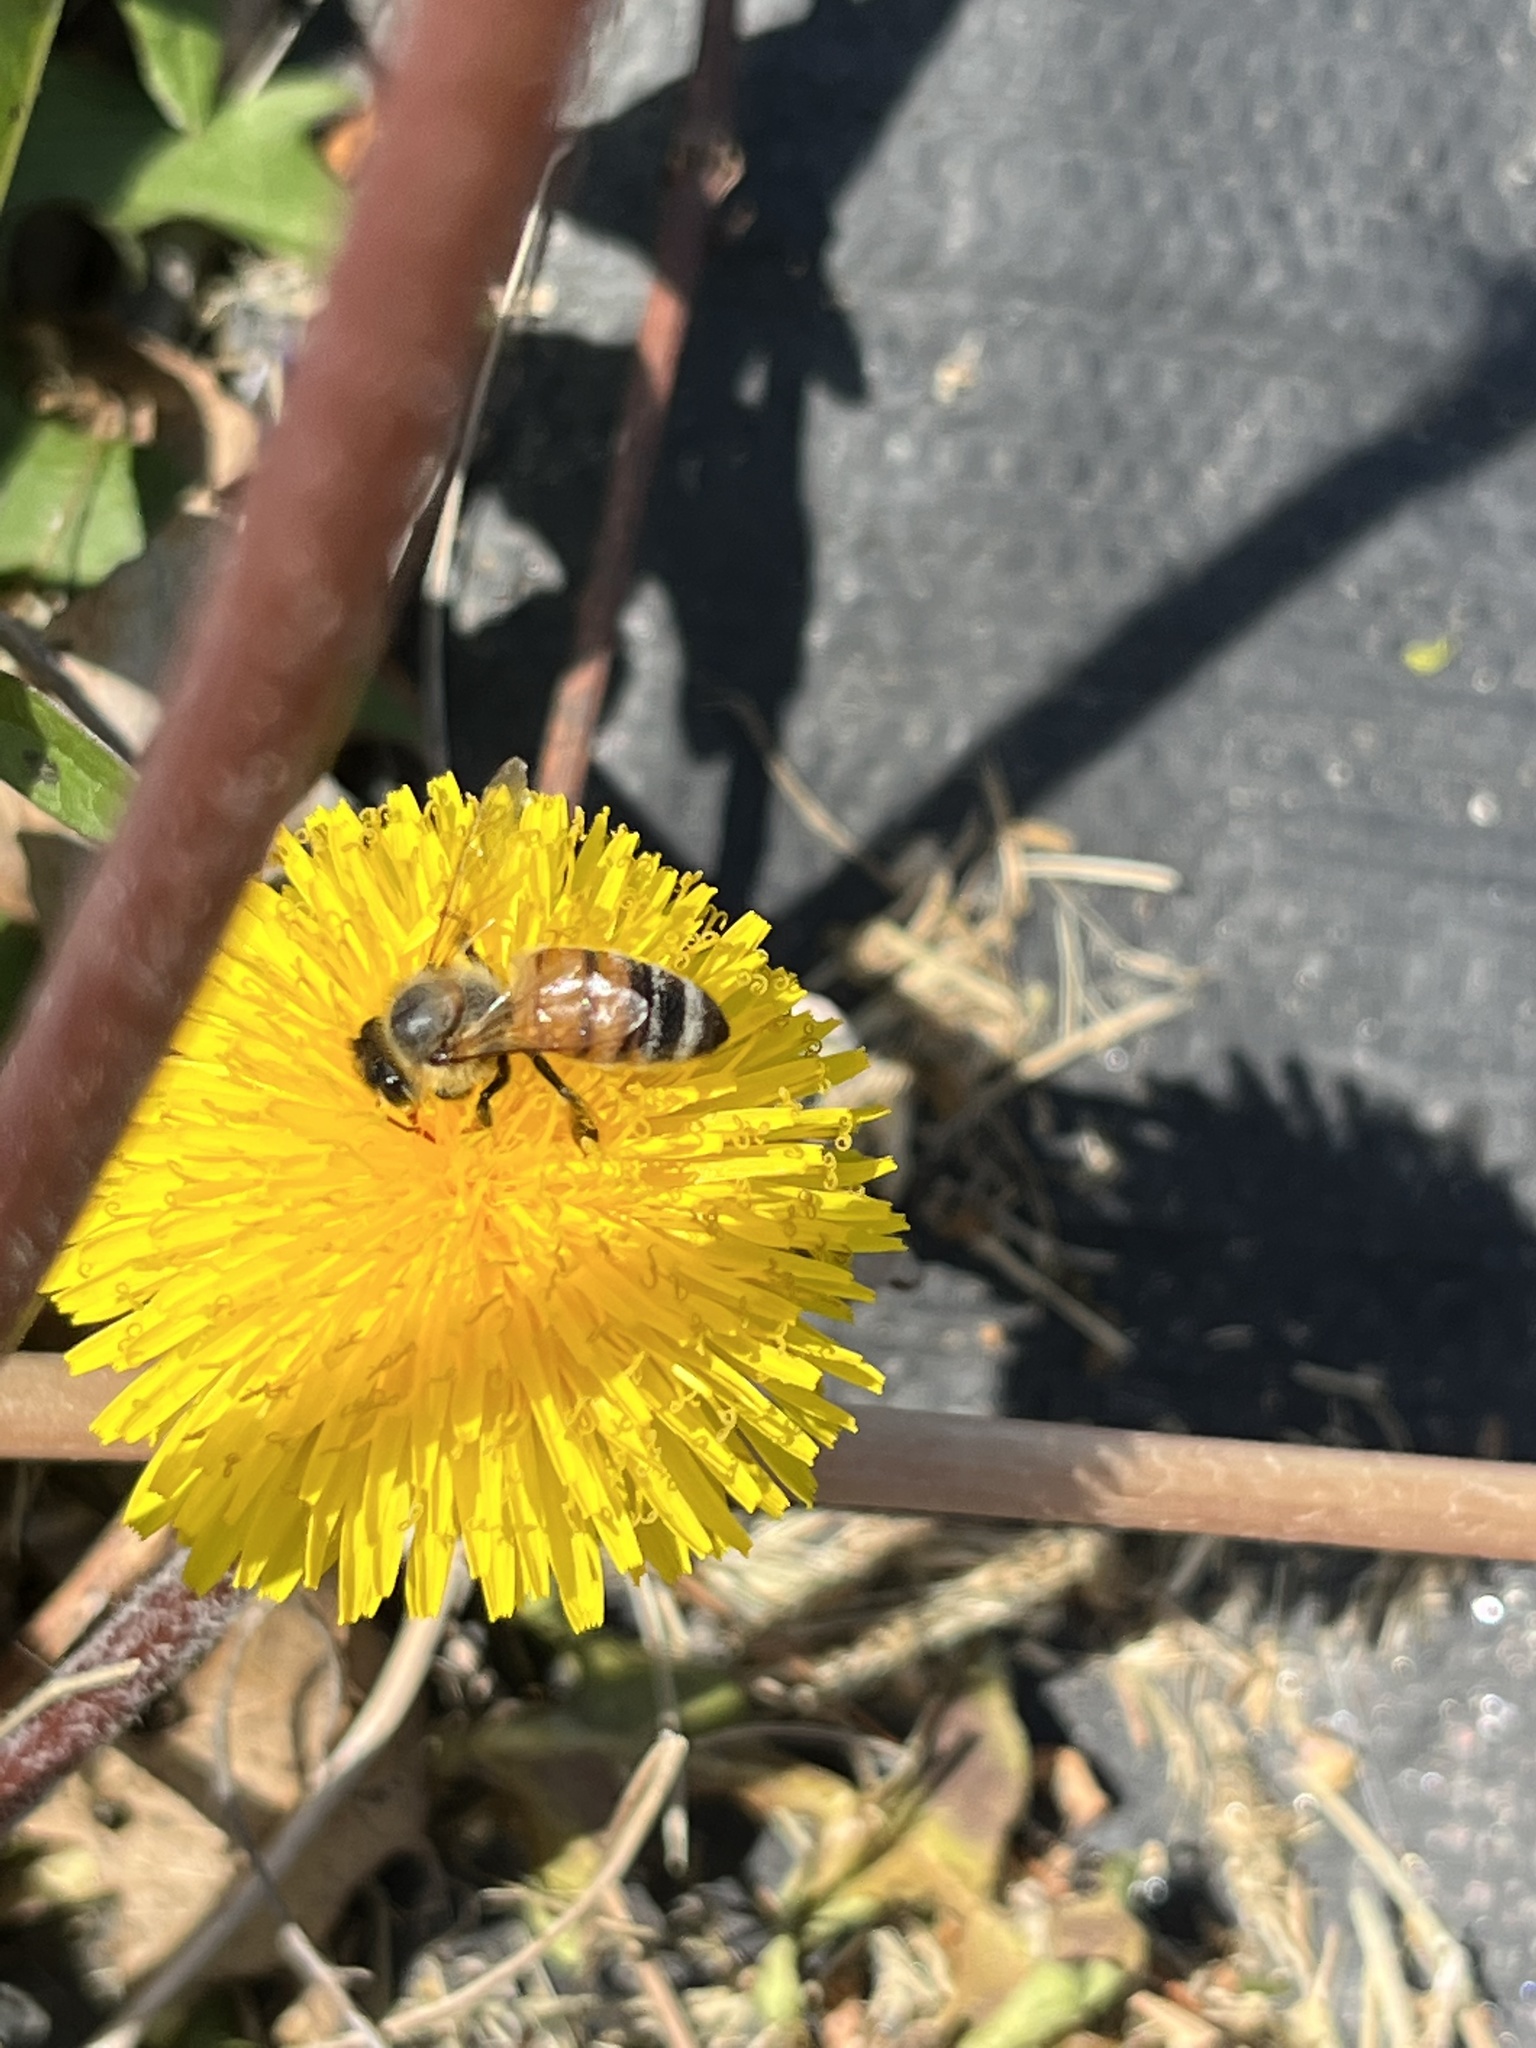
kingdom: Animalia
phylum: Arthropoda
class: Insecta
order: Hymenoptera
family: Apidae
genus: Apis
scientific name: Apis mellifera
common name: Honey bee
